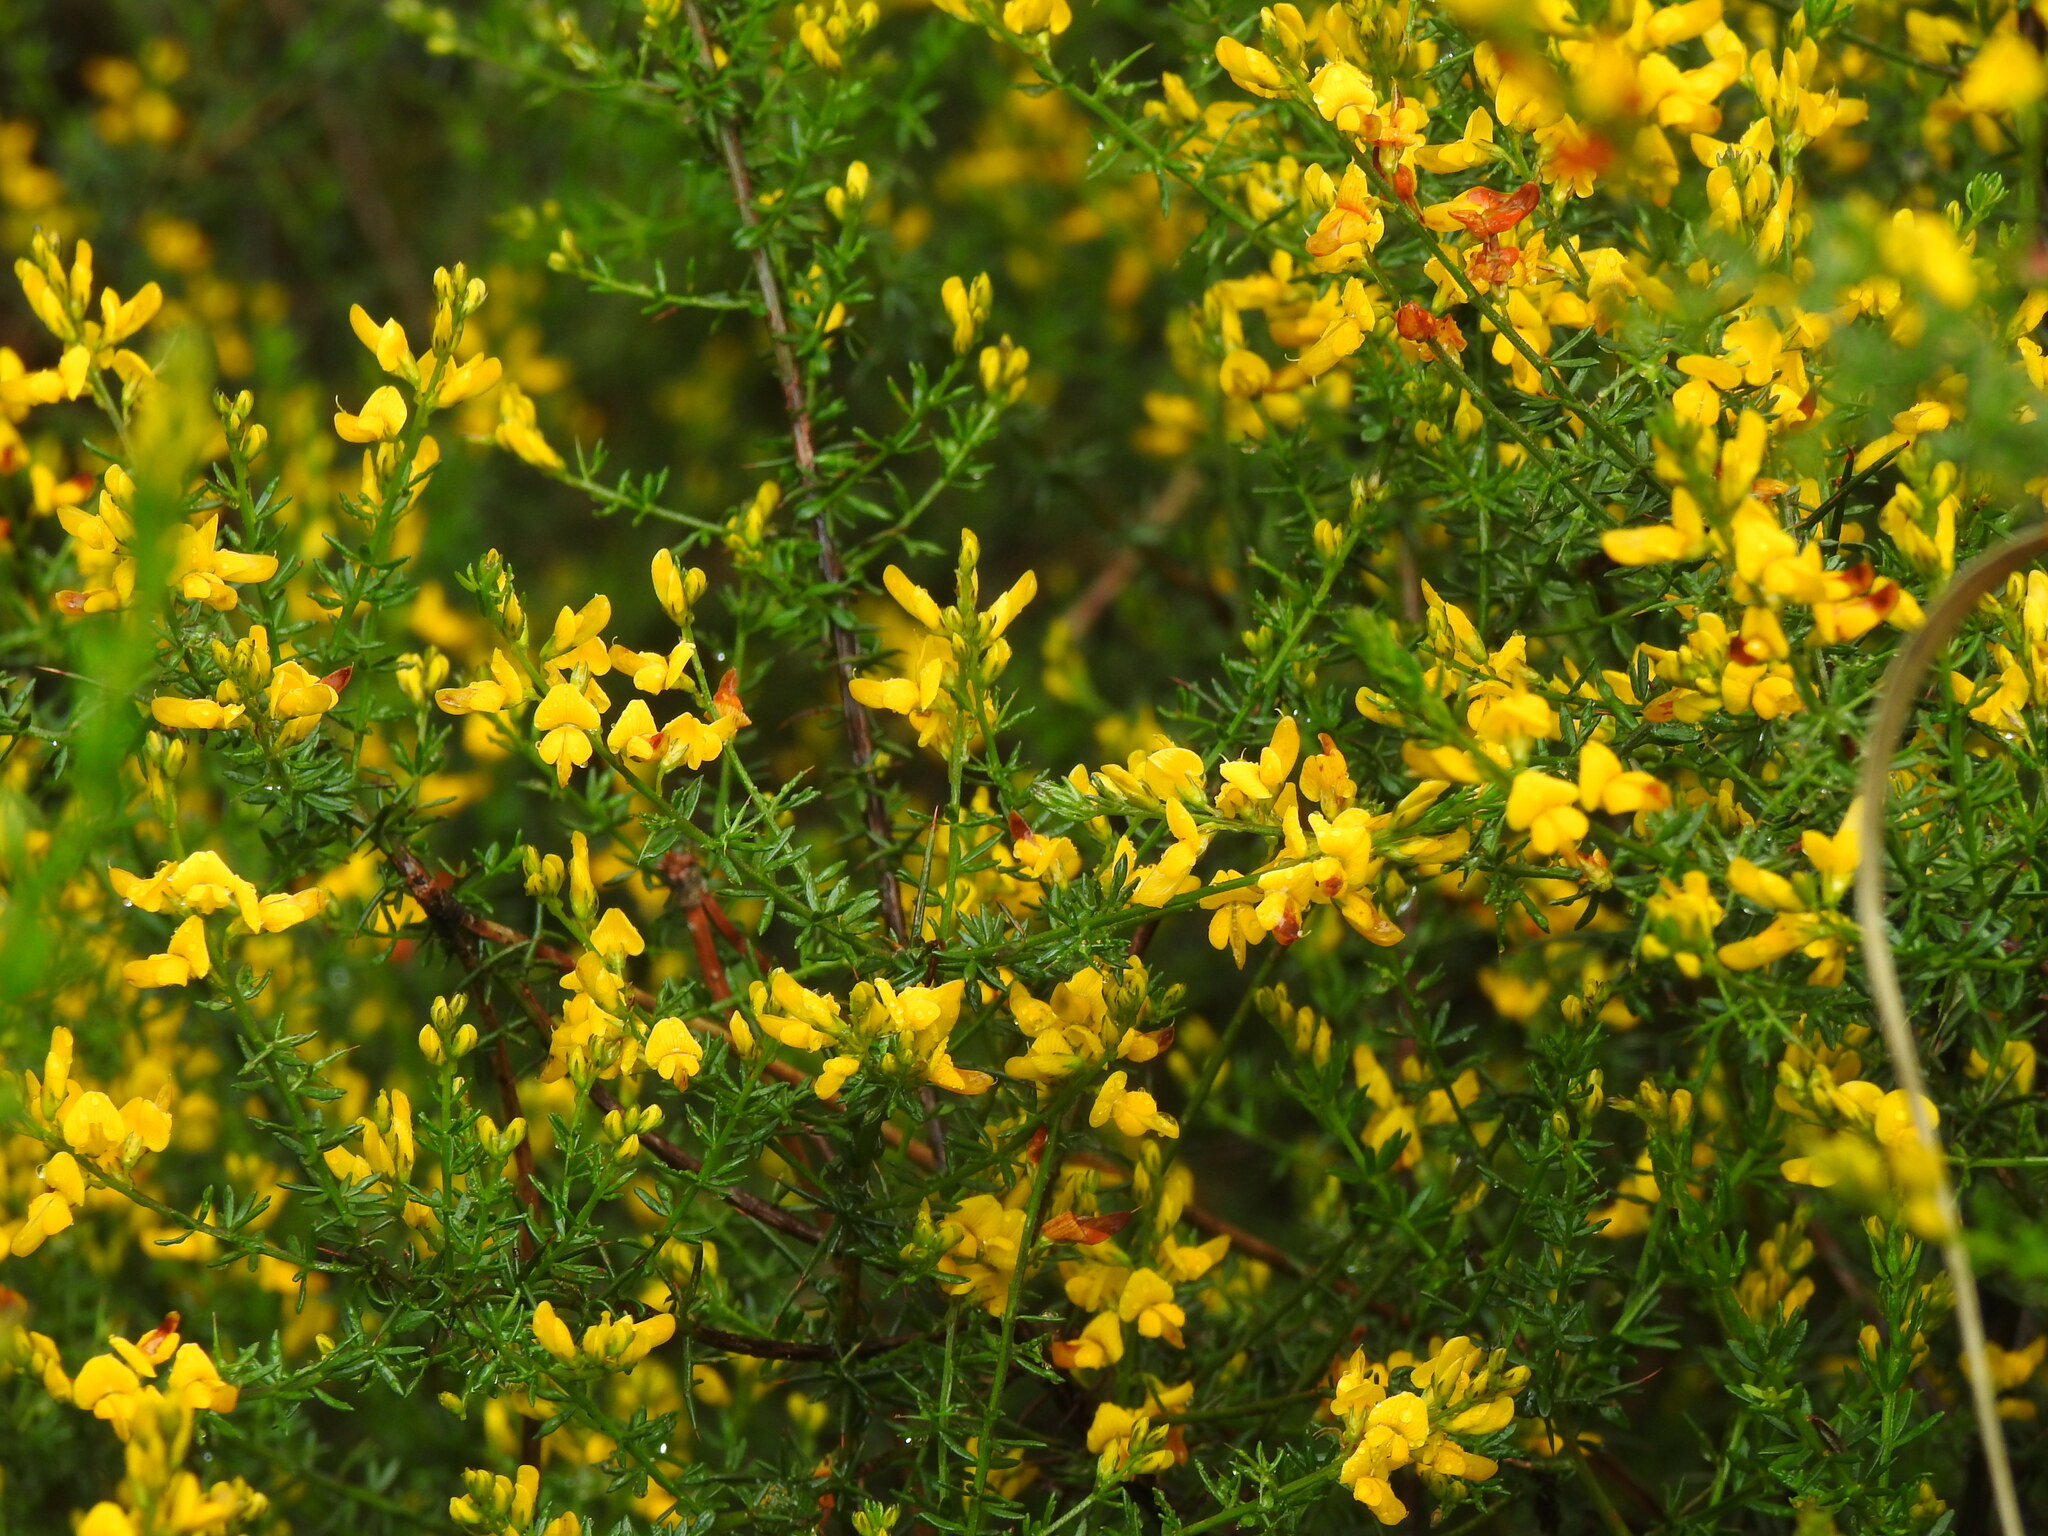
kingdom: Plantae
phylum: Tracheophyta
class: Magnoliopsida
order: Fabales
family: Fabaceae
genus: Genista
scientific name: Genista triacanthos
